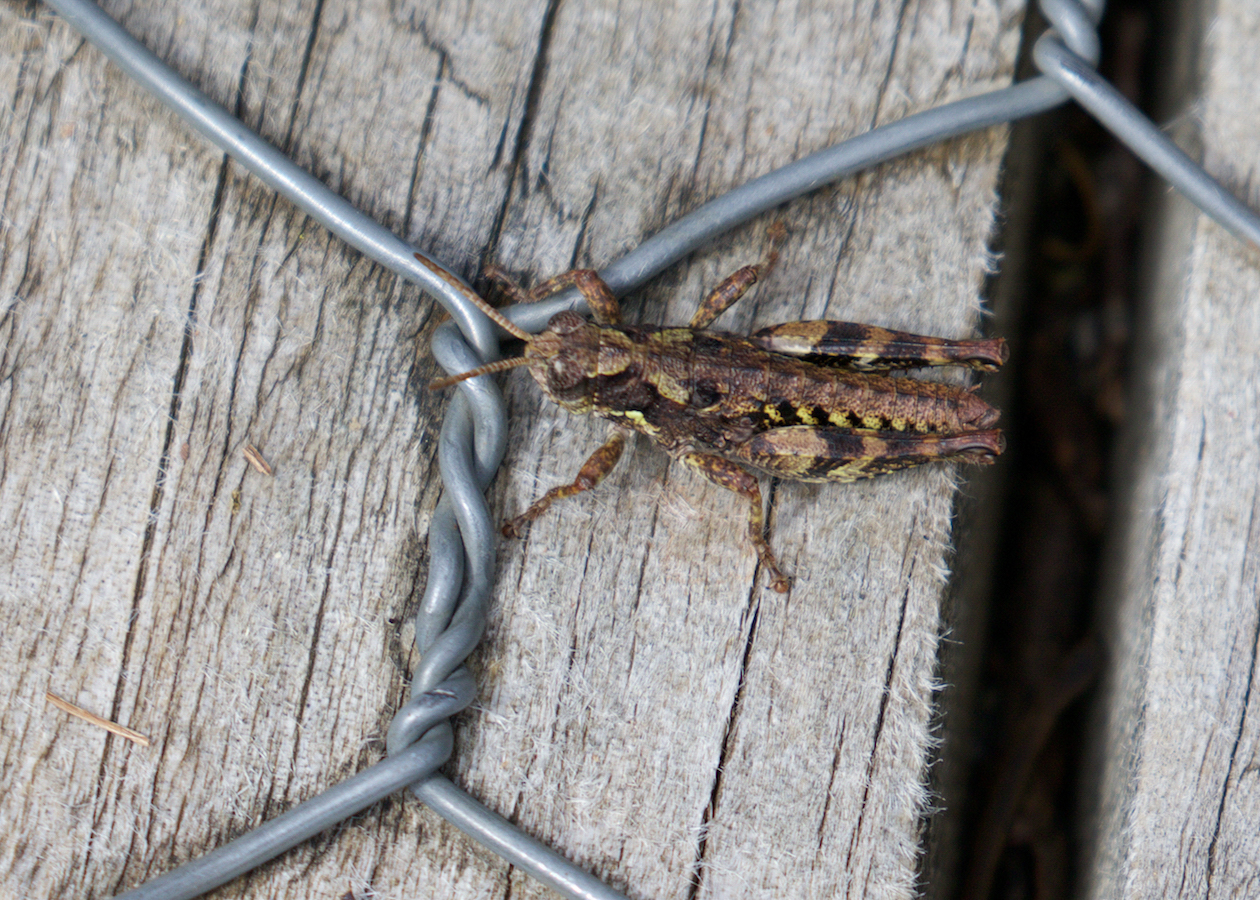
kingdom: Animalia
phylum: Arthropoda
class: Insecta
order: Orthoptera
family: Acrididae
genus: Tasmaniacris
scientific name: Tasmaniacris tasmaniensis
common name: Tasmanian grasshopper
